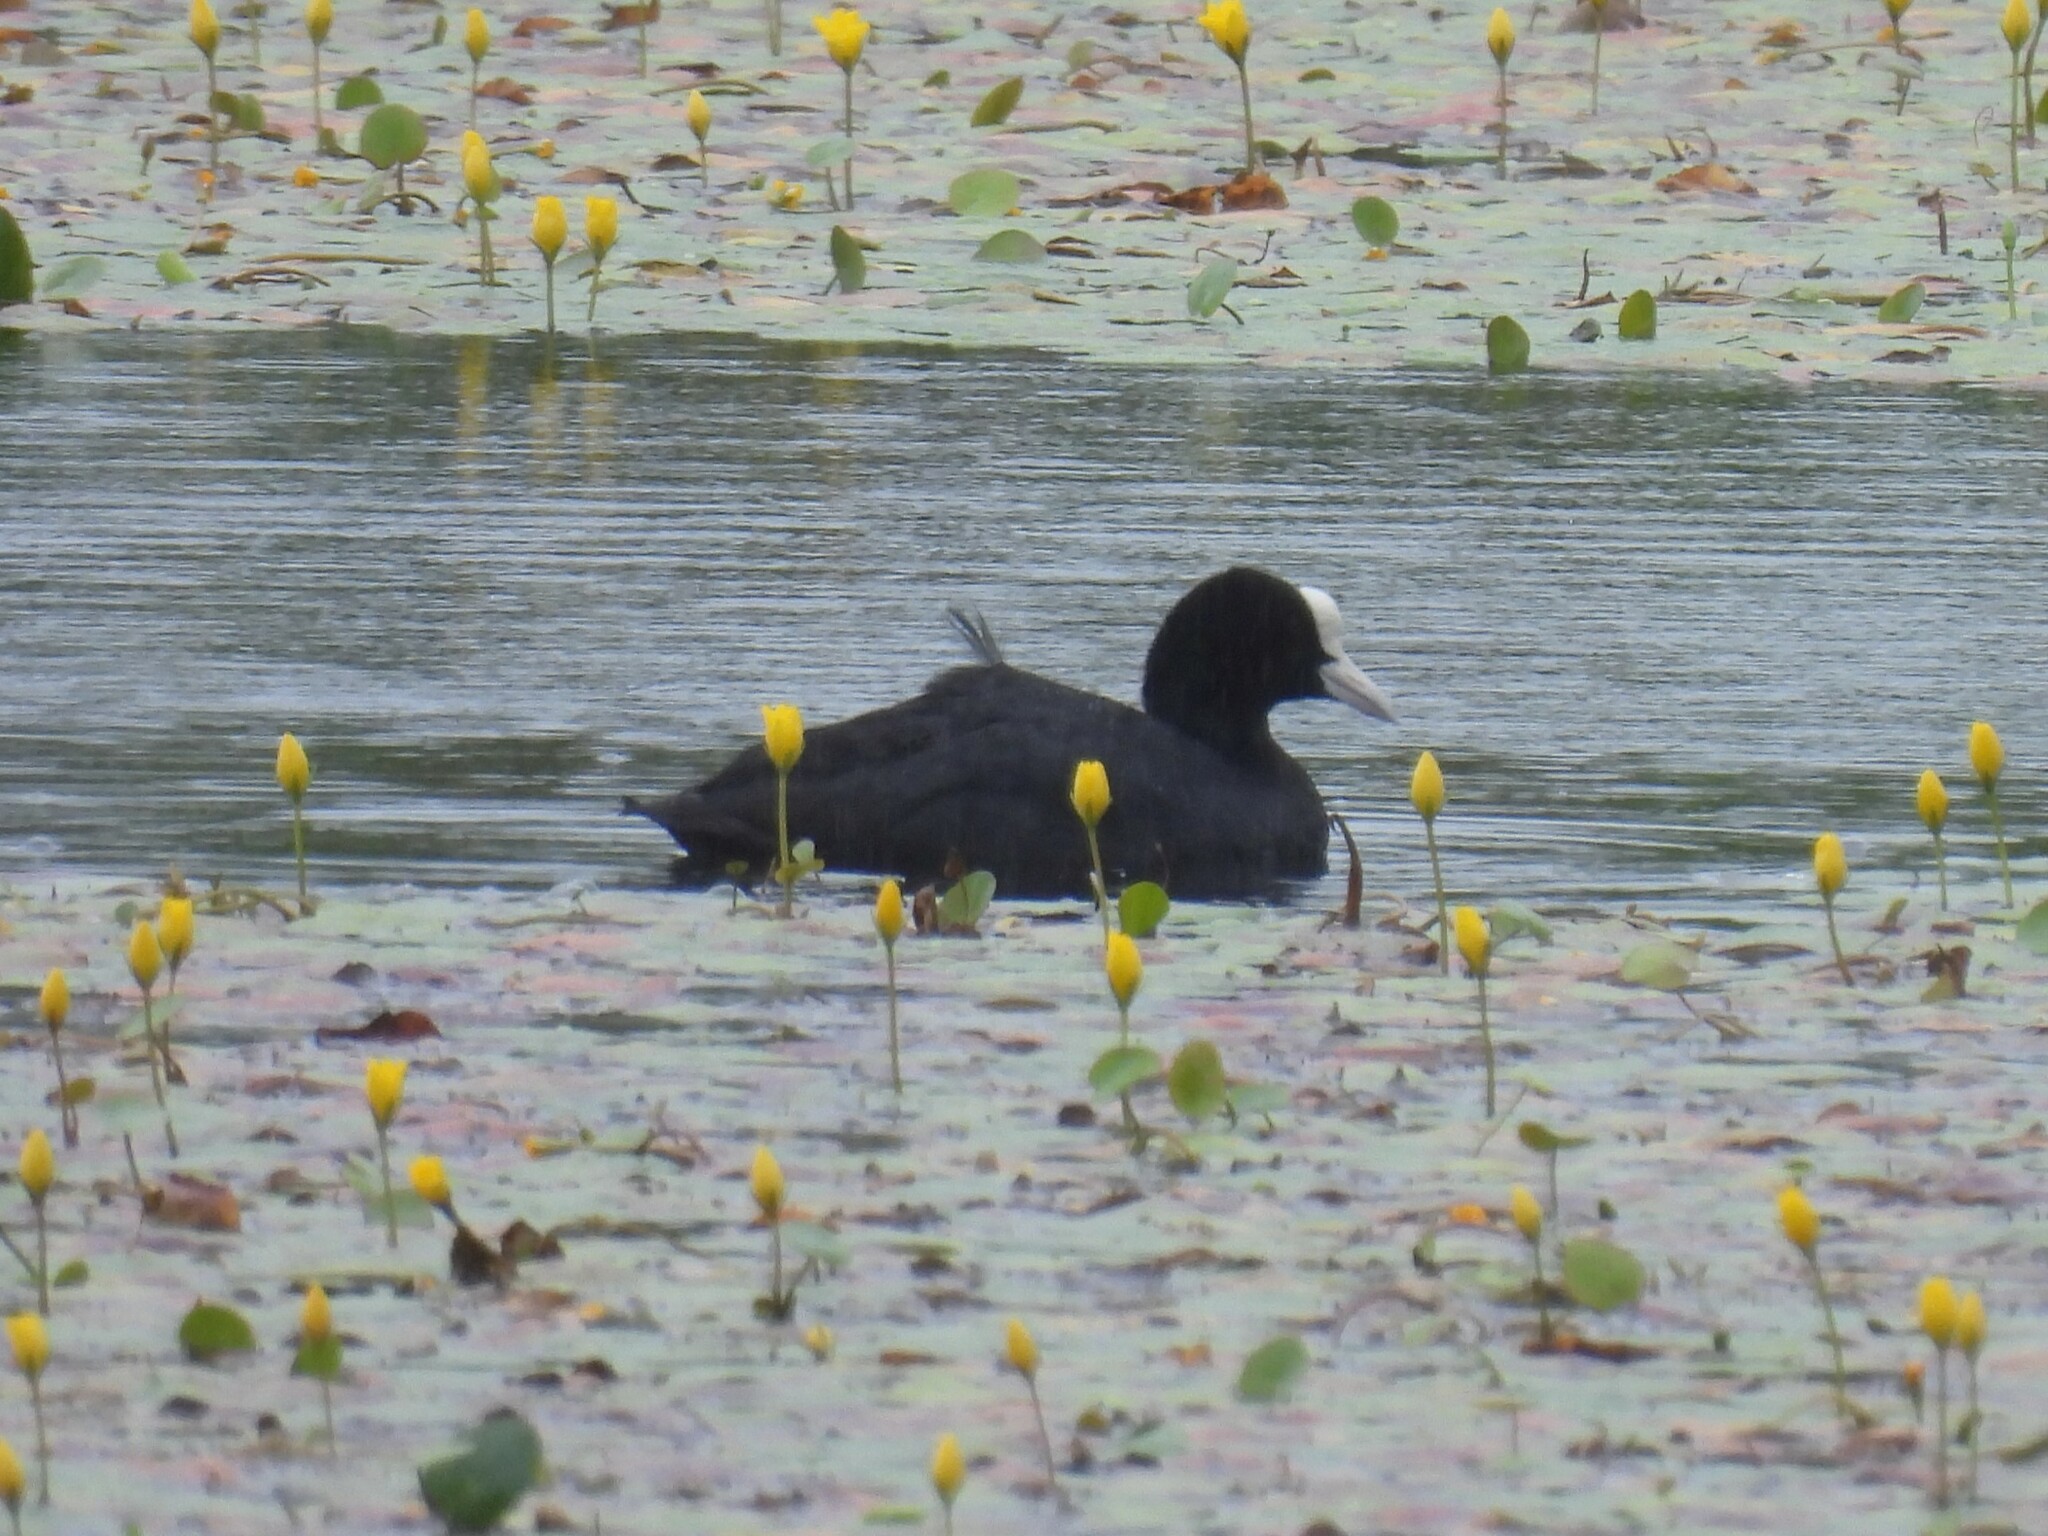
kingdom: Animalia
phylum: Chordata
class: Aves
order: Gruiformes
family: Rallidae
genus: Fulica
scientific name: Fulica atra
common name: Eurasian coot
